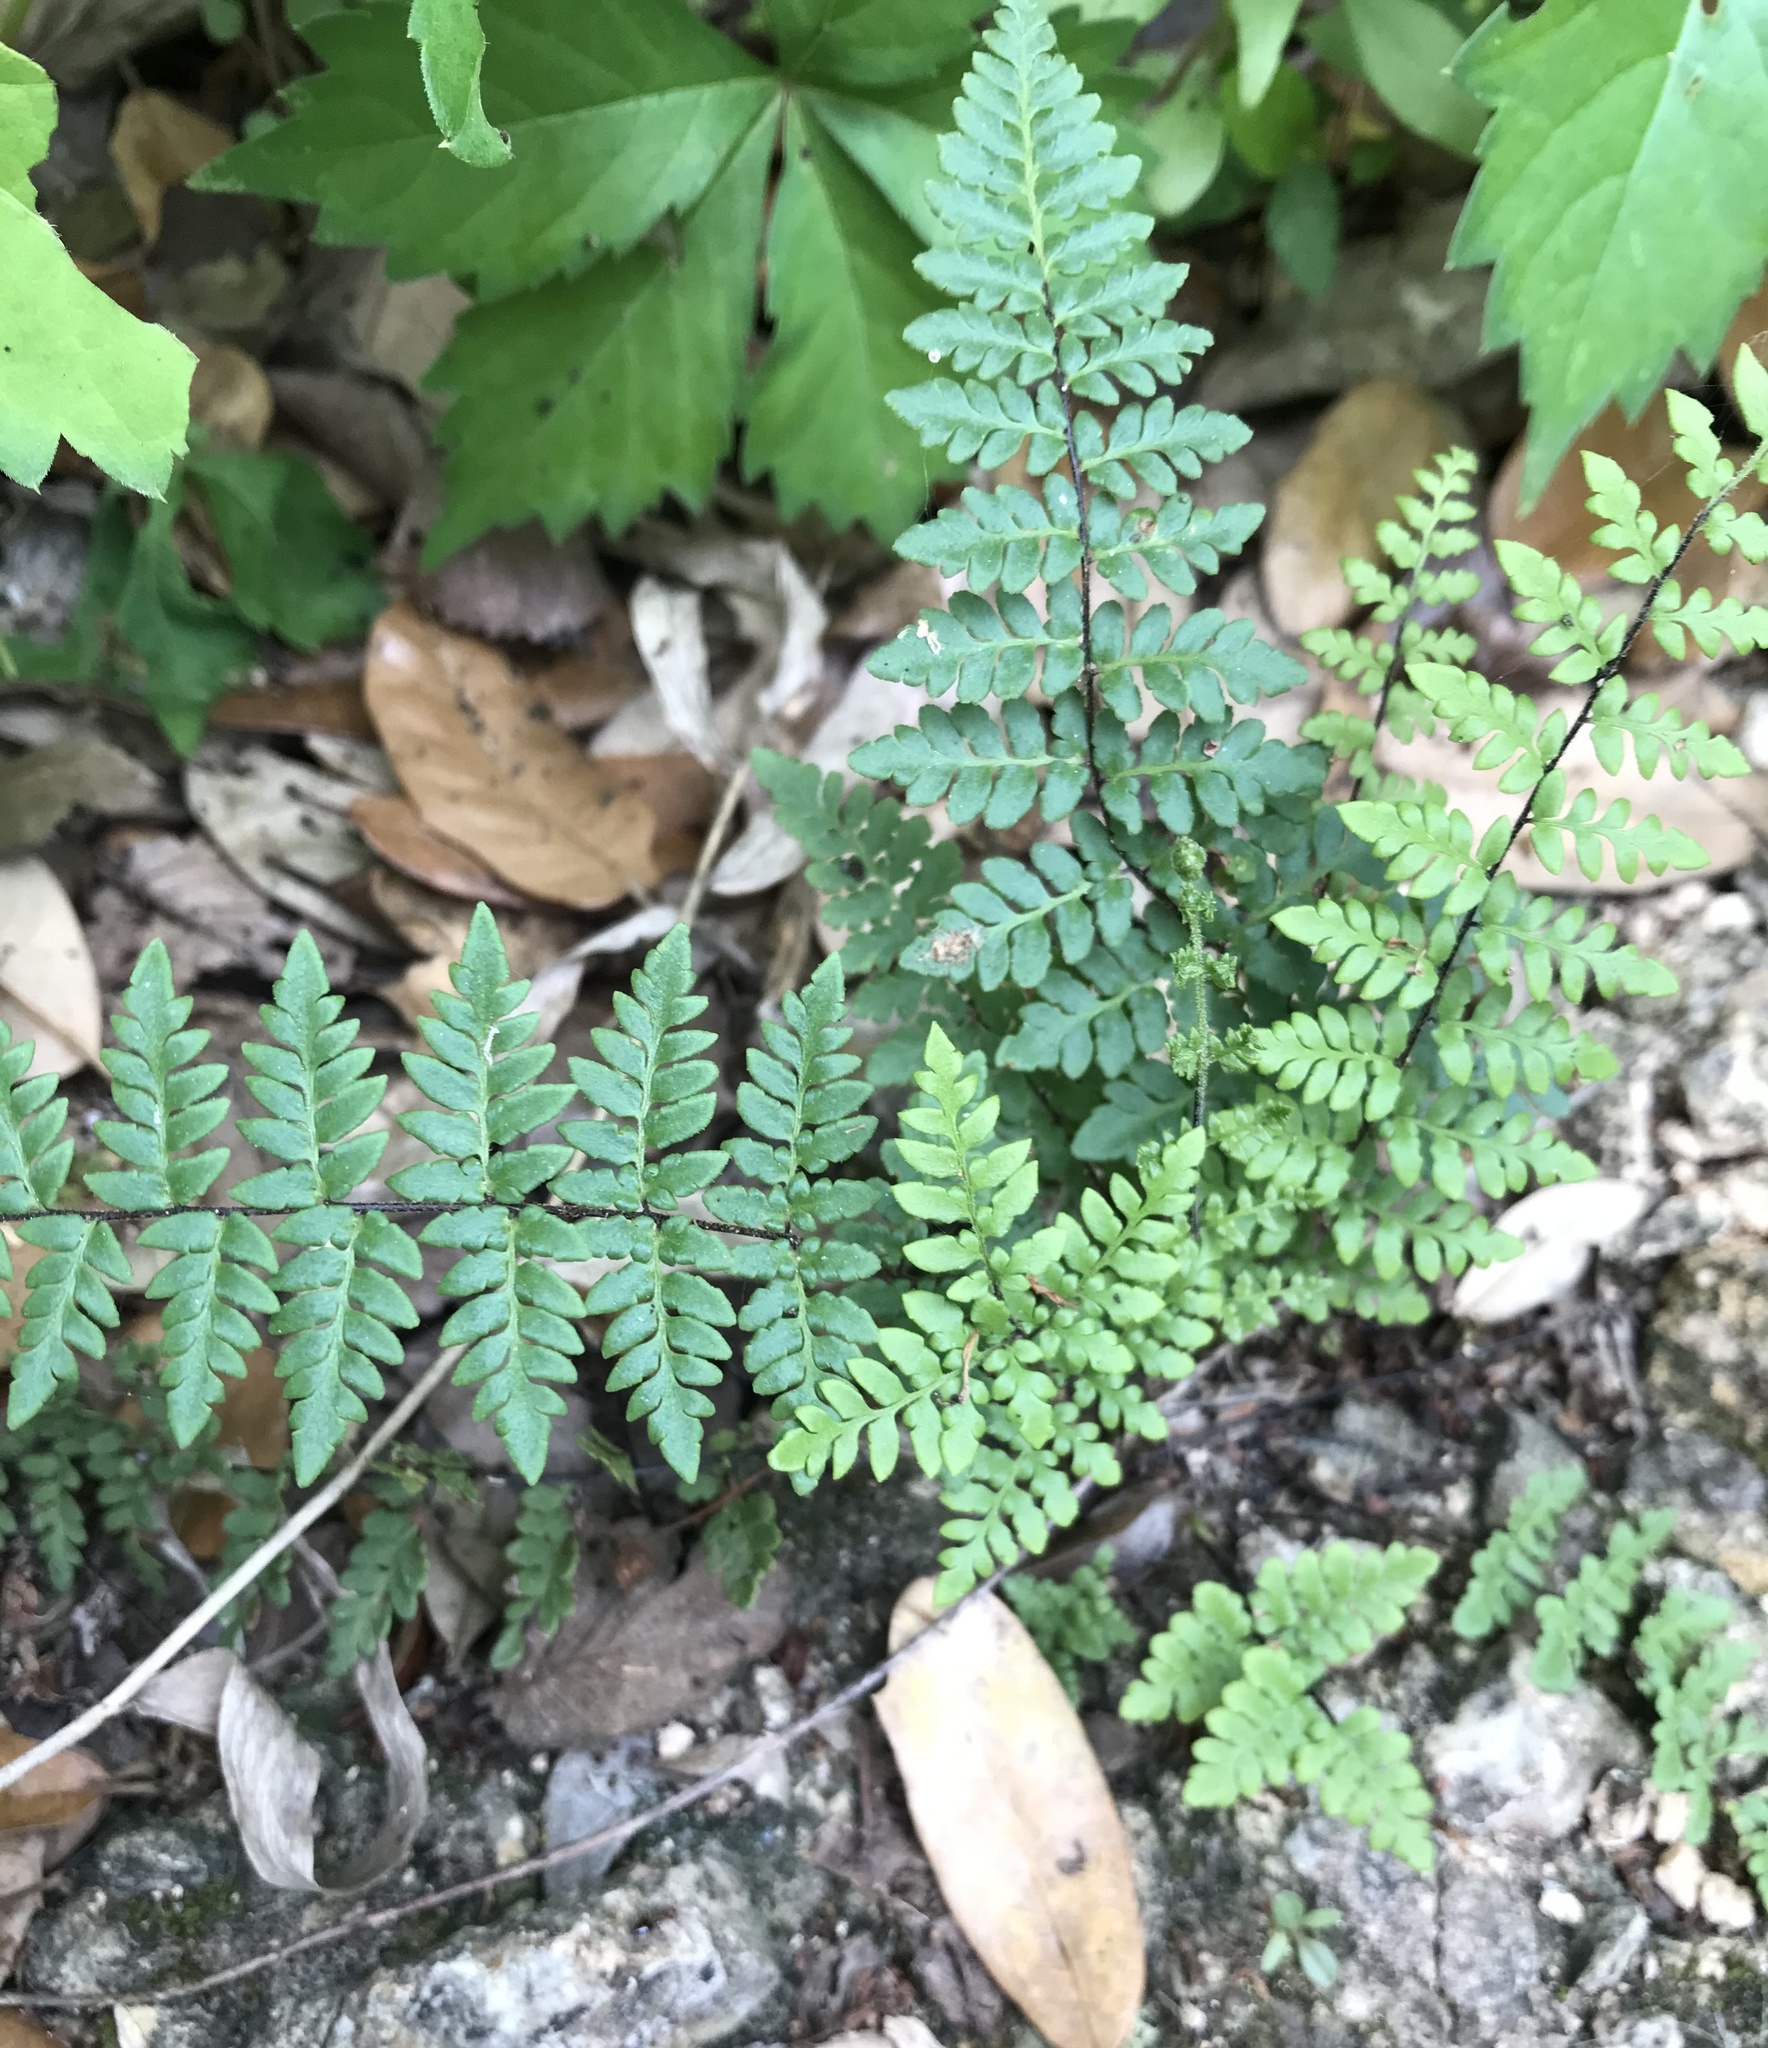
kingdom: Plantae
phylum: Tracheophyta
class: Polypodiopsida
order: Polypodiales
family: Pteridaceae
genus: Myriopteris
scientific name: Myriopteris alabamensis
